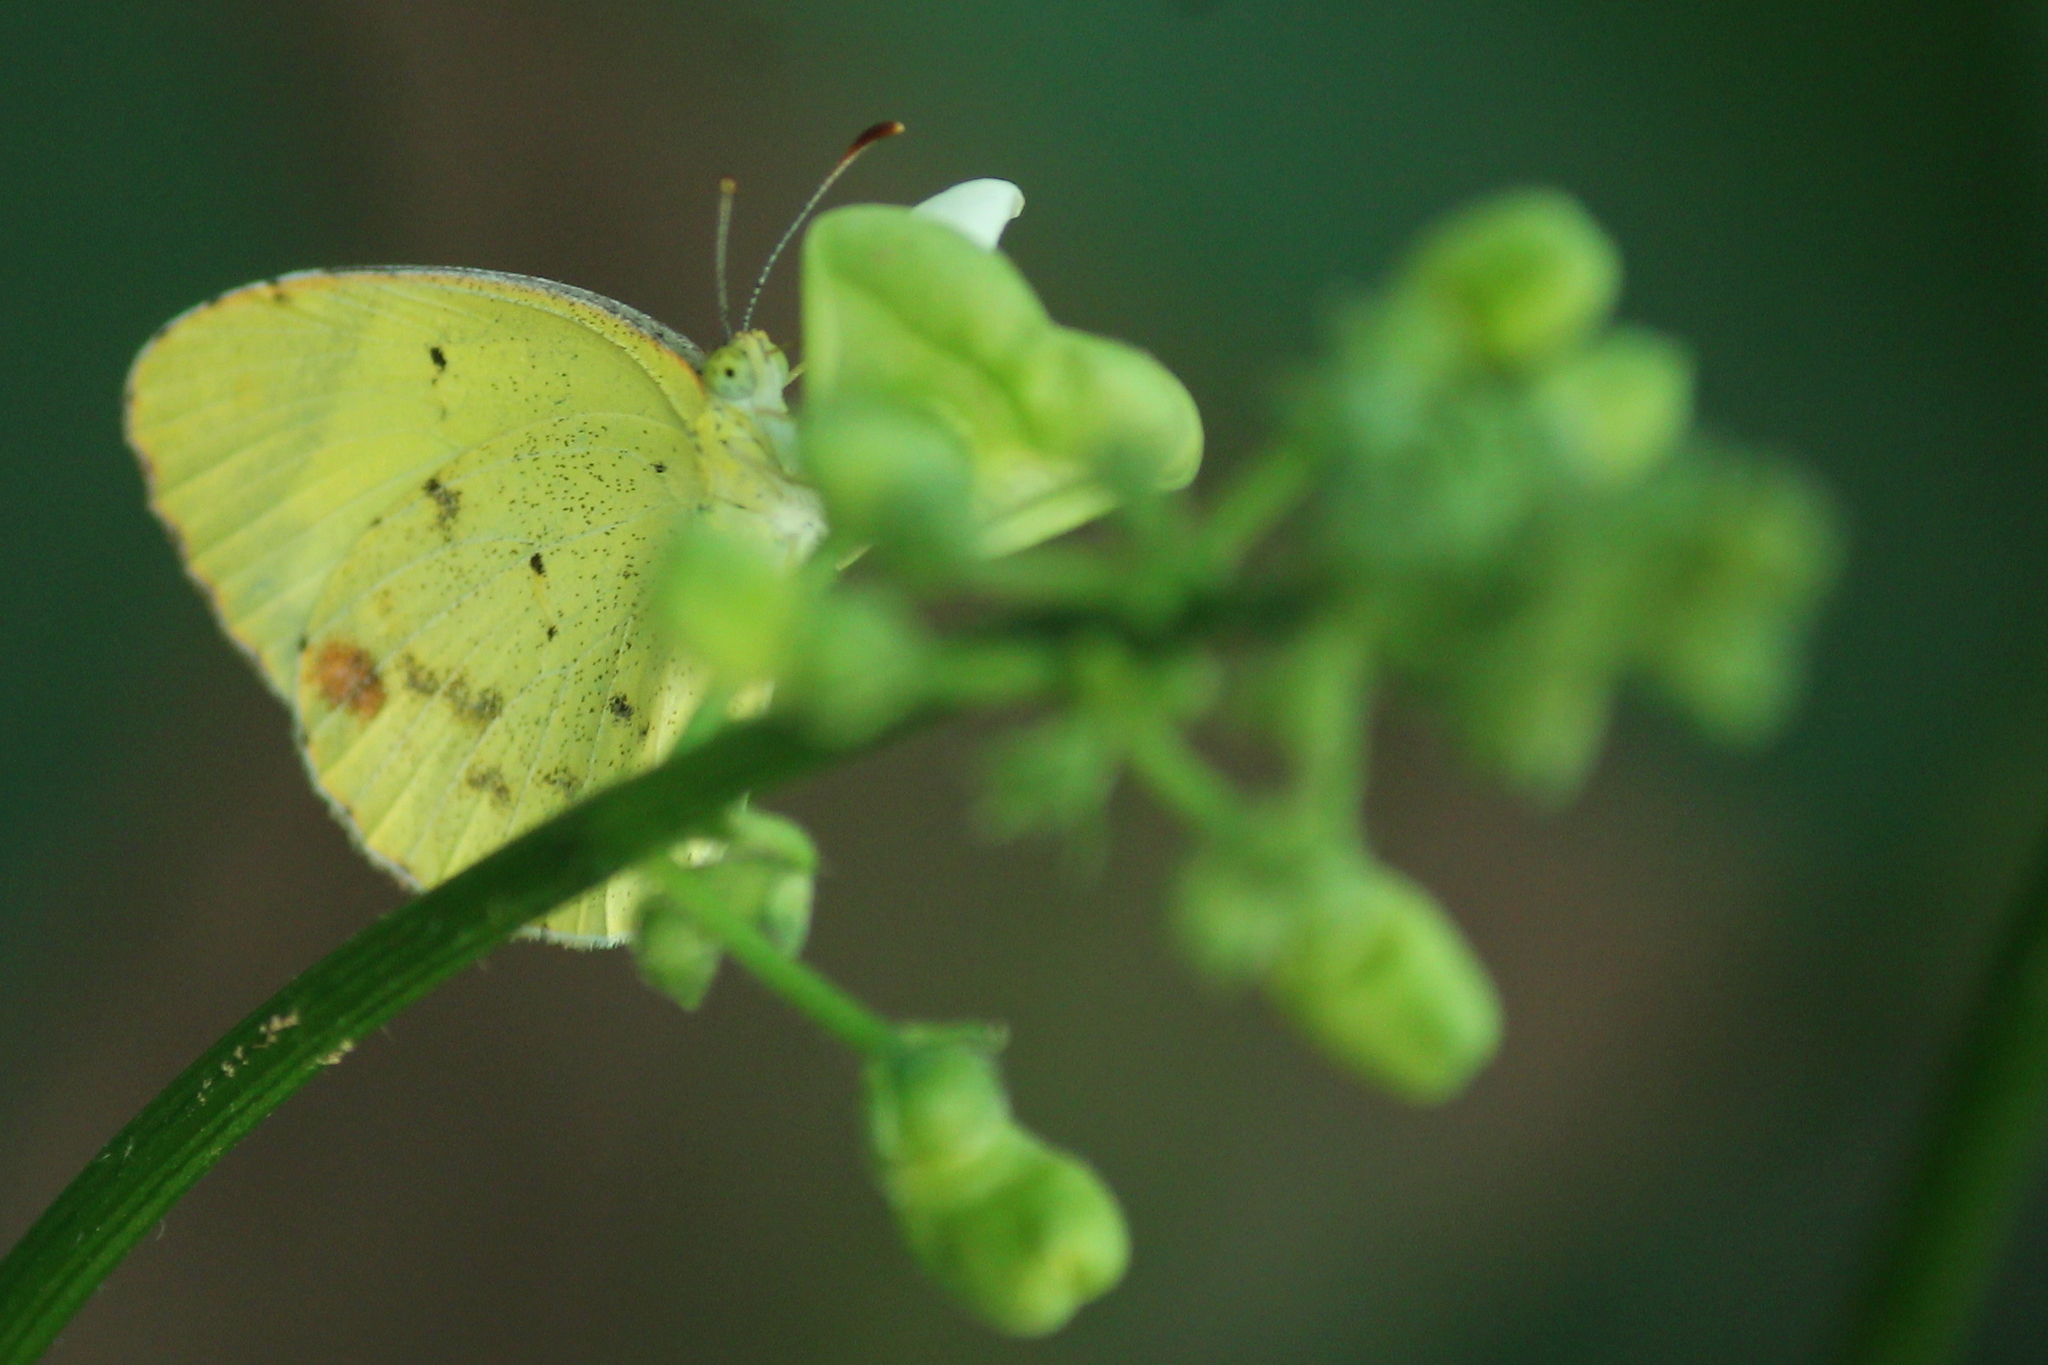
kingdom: Animalia
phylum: Arthropoda
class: Insecta
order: Lepidoptera
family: Pieridae
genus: Pyrisitia
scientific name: Pyrisitia lisa
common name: Little yellow
